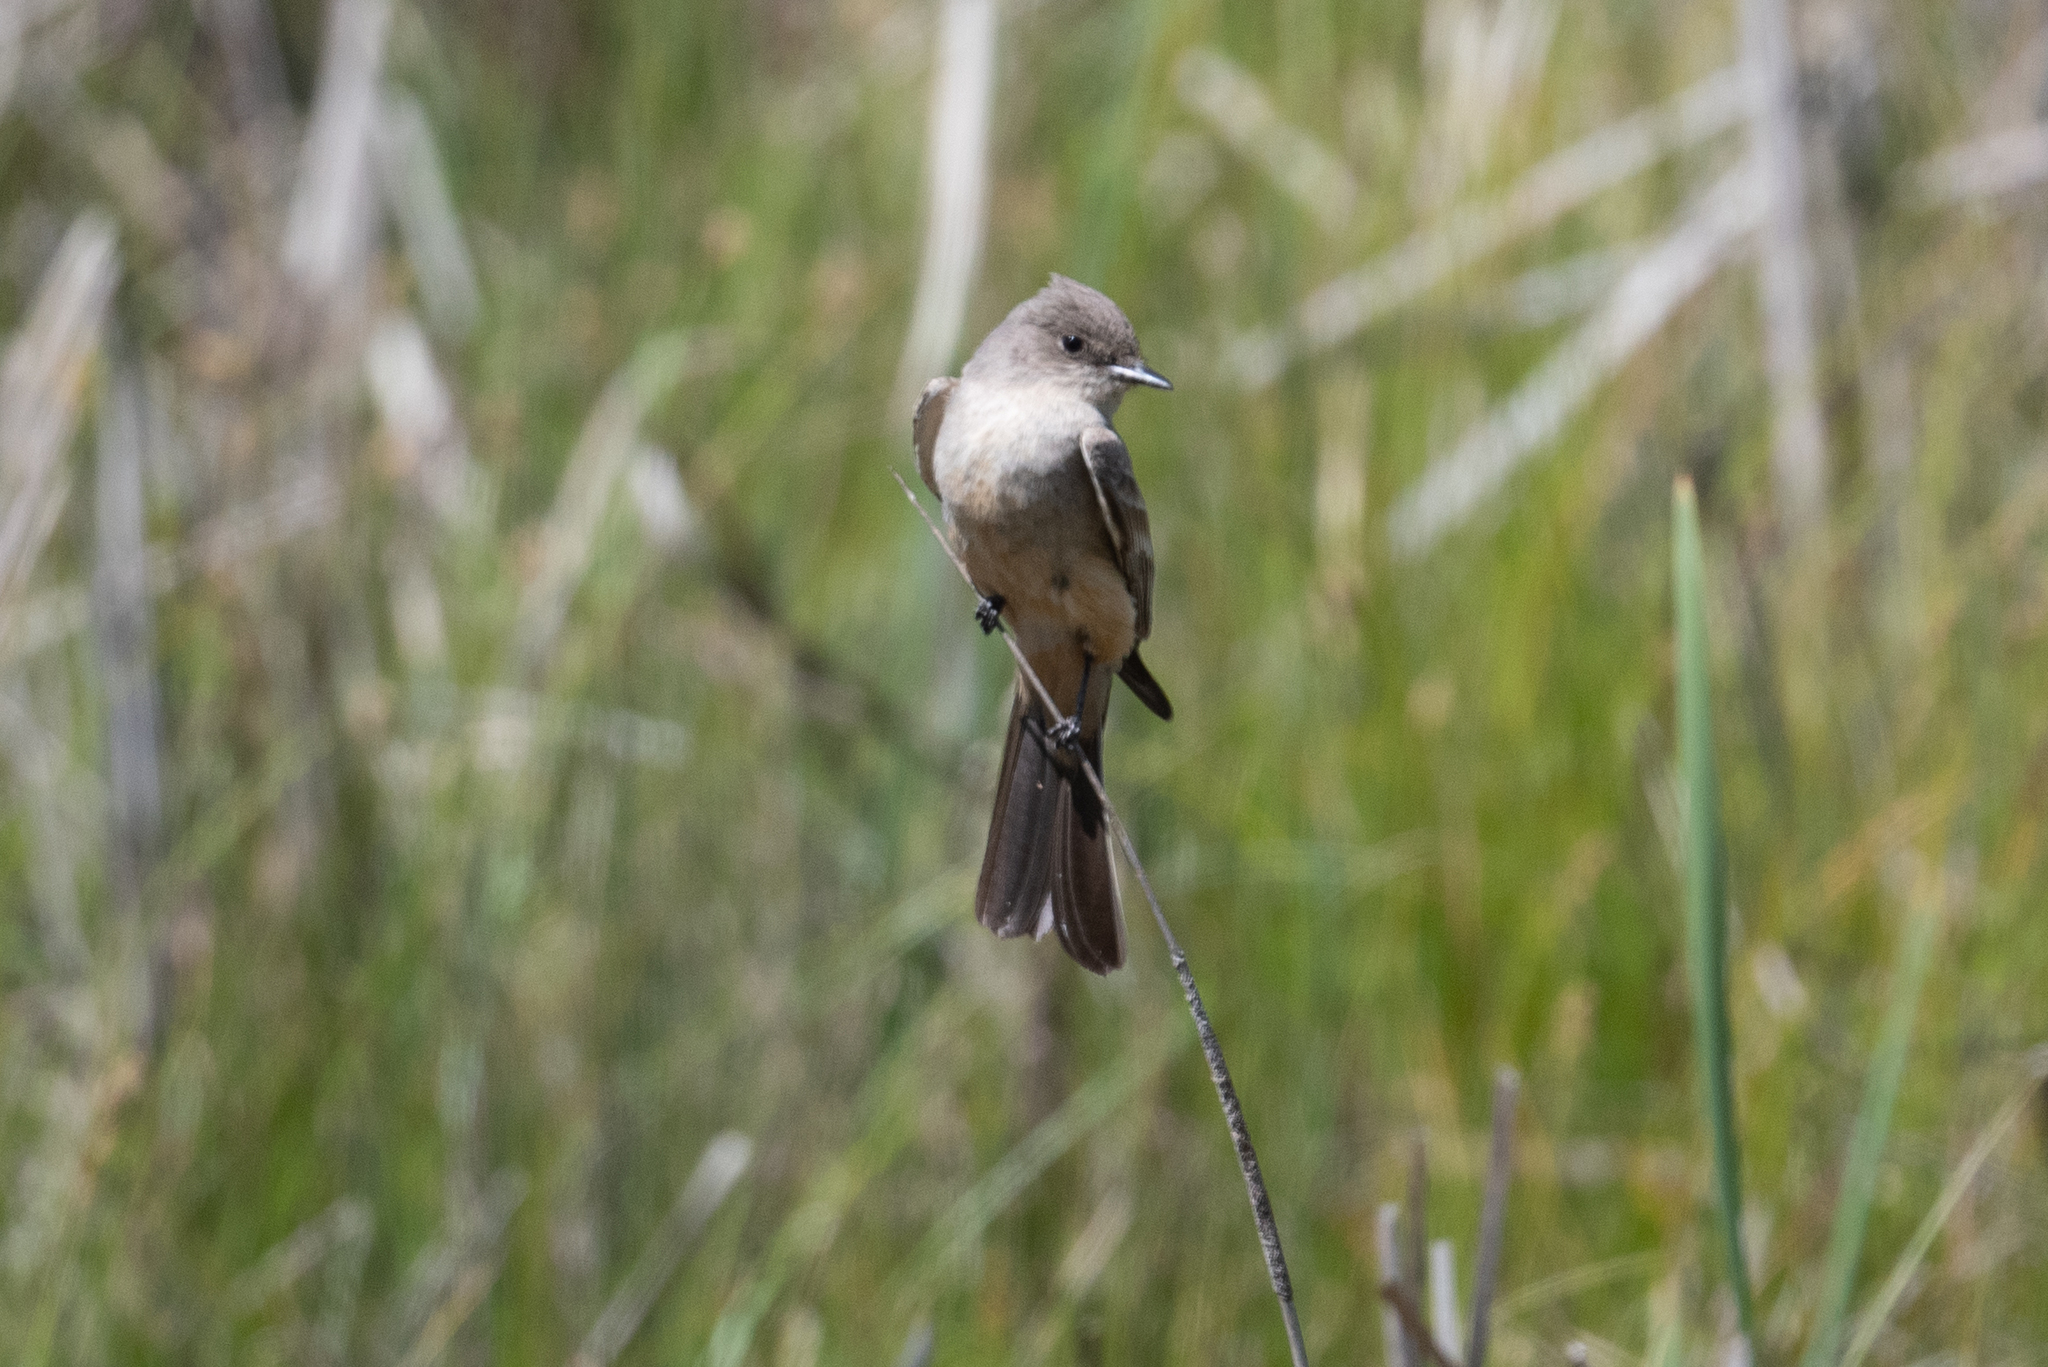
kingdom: Animalia
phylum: Chordata
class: Aves
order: Passeriformes
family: Tyrannidae
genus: Sayornis
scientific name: Sayornis saya
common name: Say's phoebe
